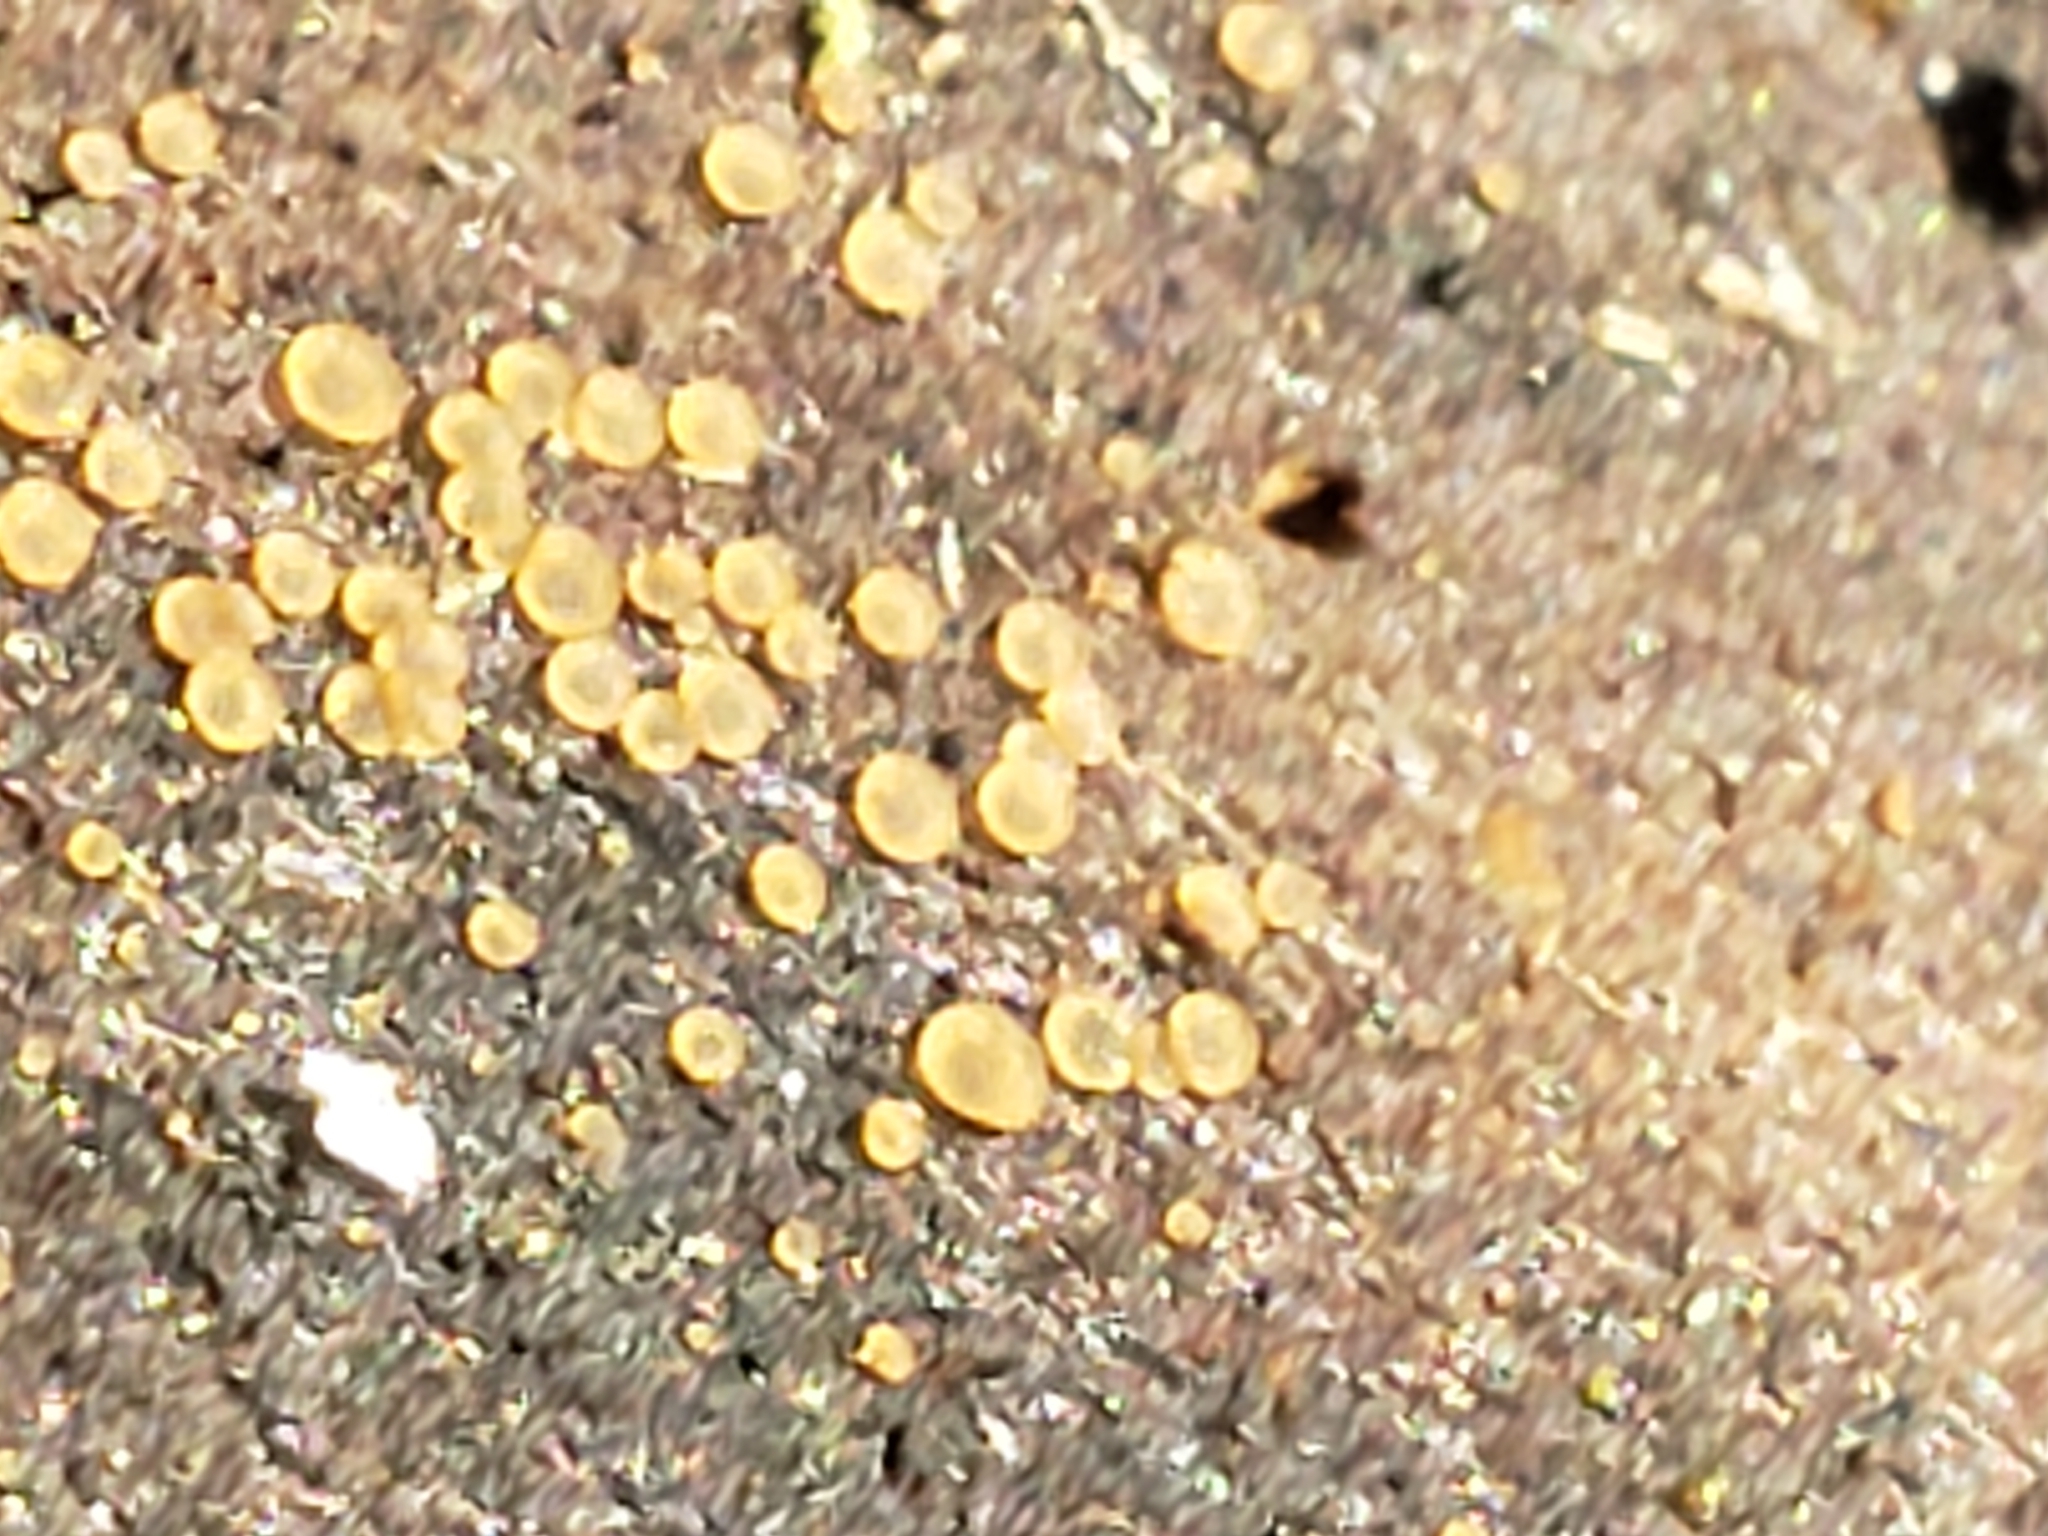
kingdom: Fungi
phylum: Ascomycota
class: Orbiliomycetes
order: Orbiliales
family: Orbiliaceae
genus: Orbilia
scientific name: Orbilia xanthostigma
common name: Common glasscup
